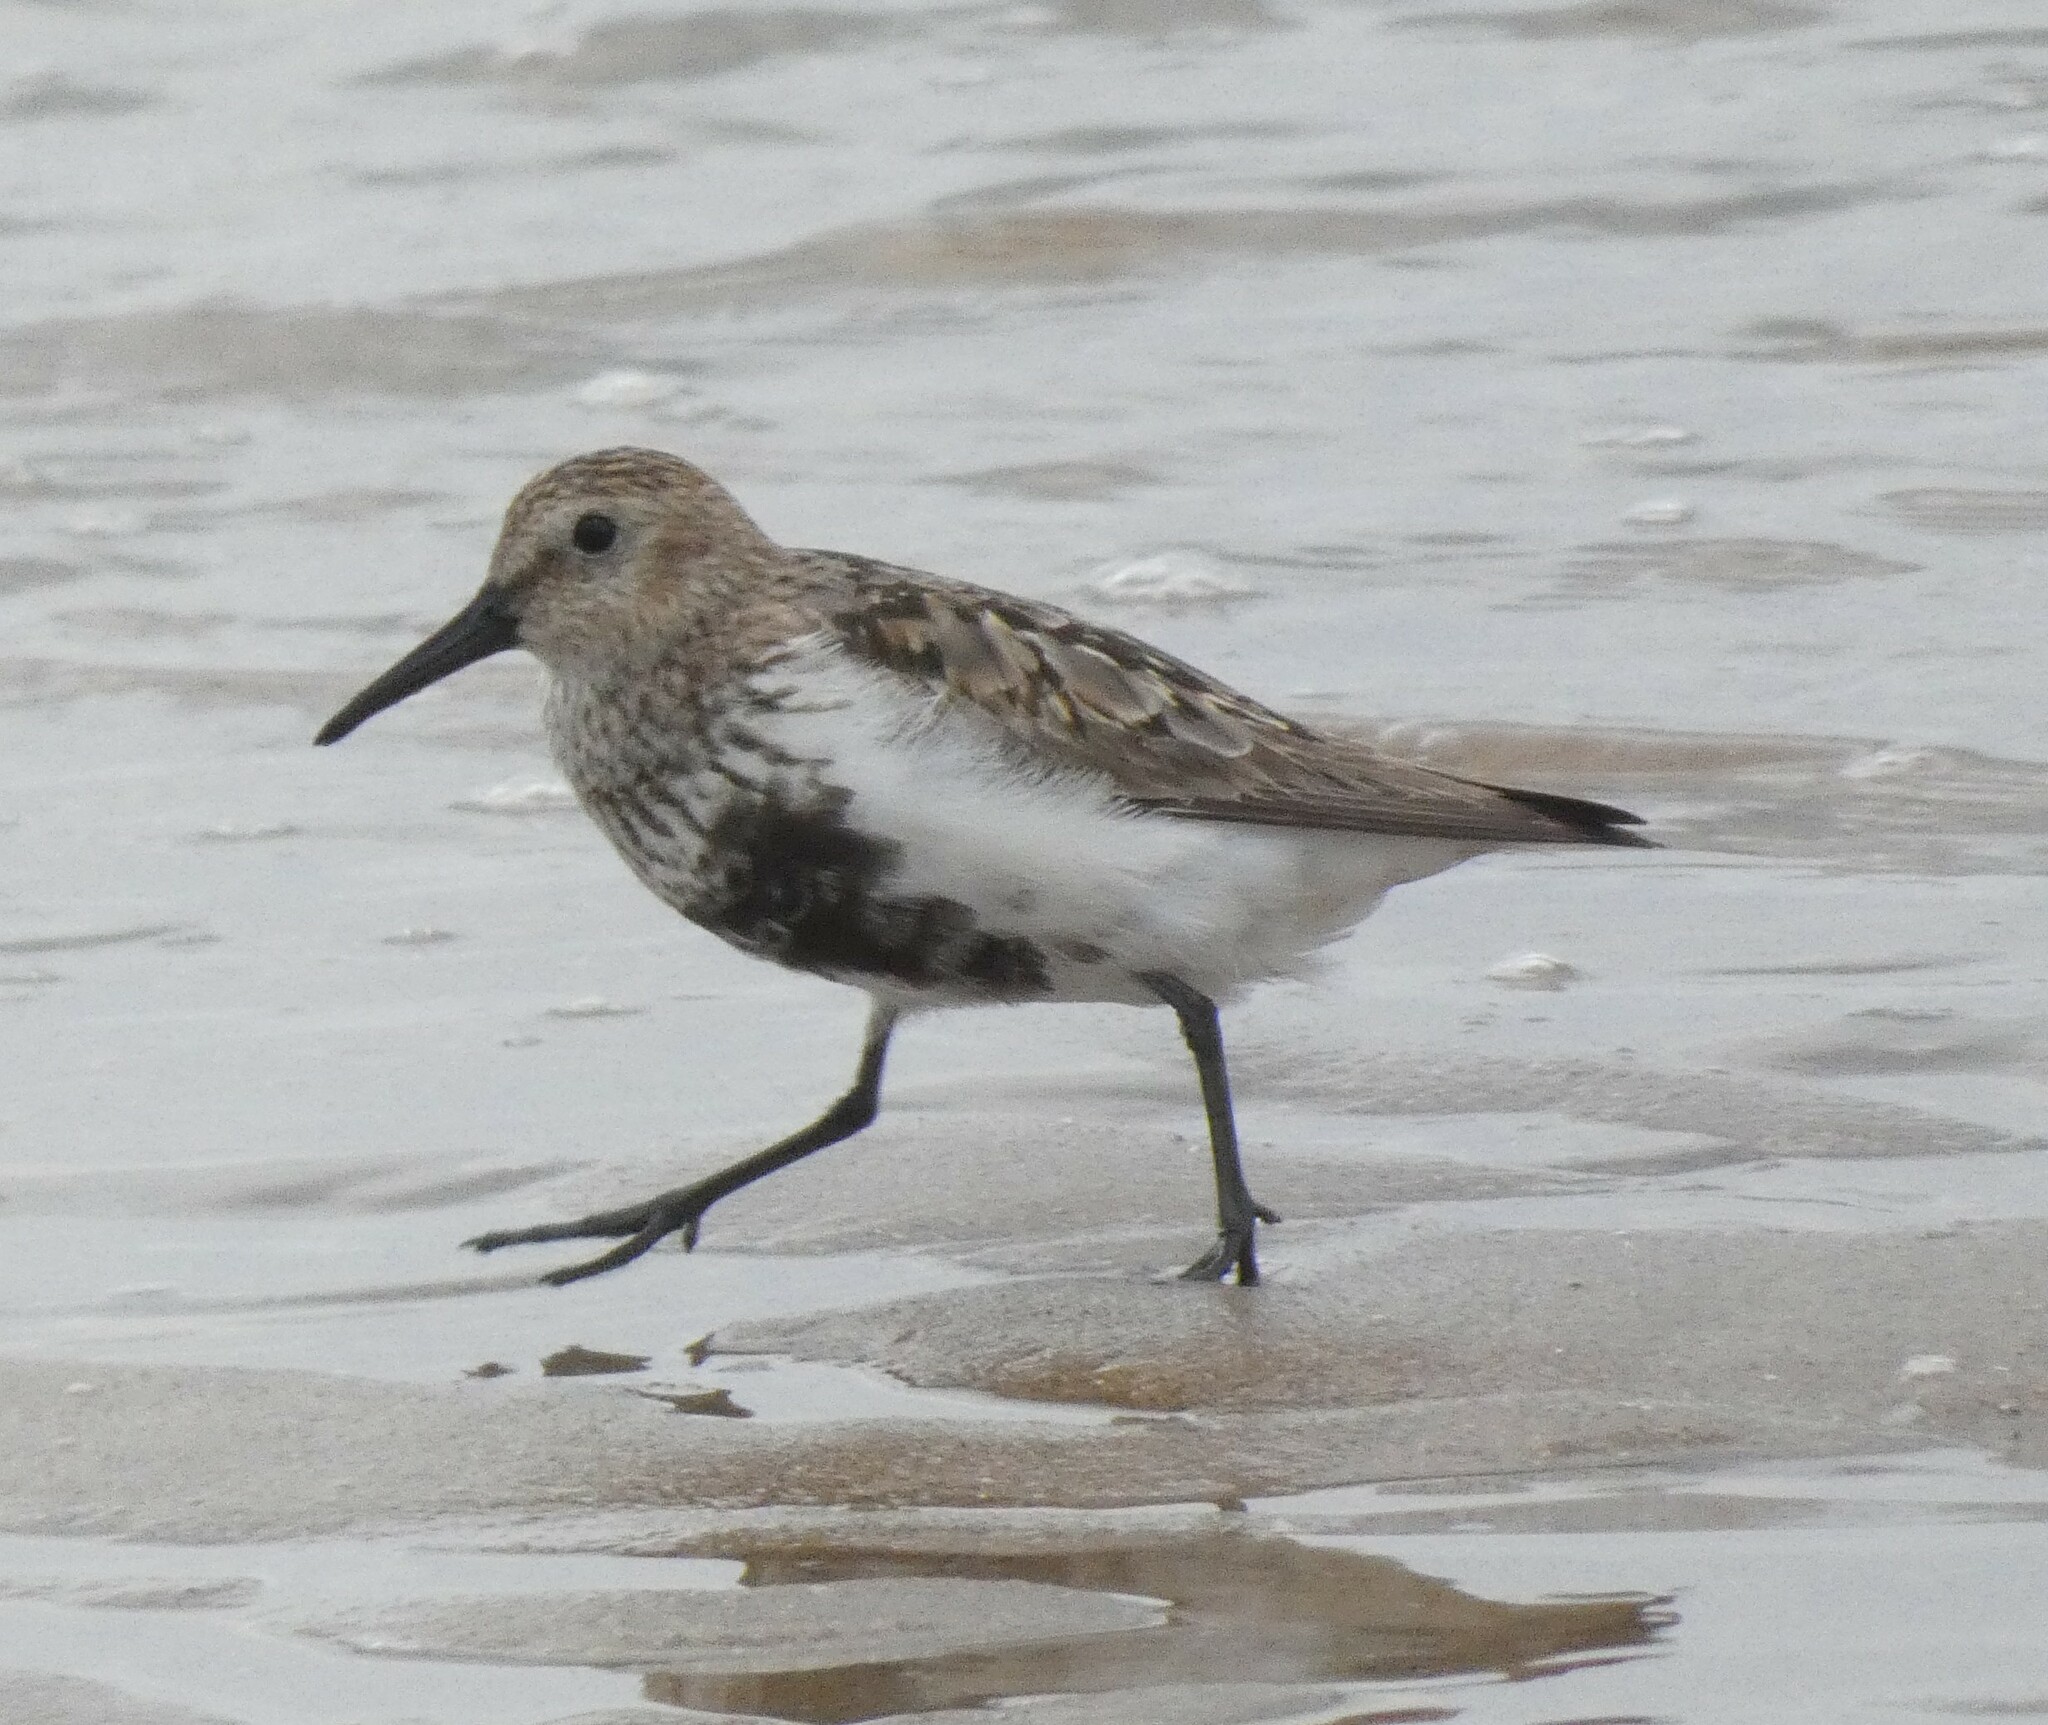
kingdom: Animalia
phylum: Chordata
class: Aves
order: Charadriiformes
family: Scolopacidae
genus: Calidris
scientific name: Calidris alpina
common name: Dunlin
